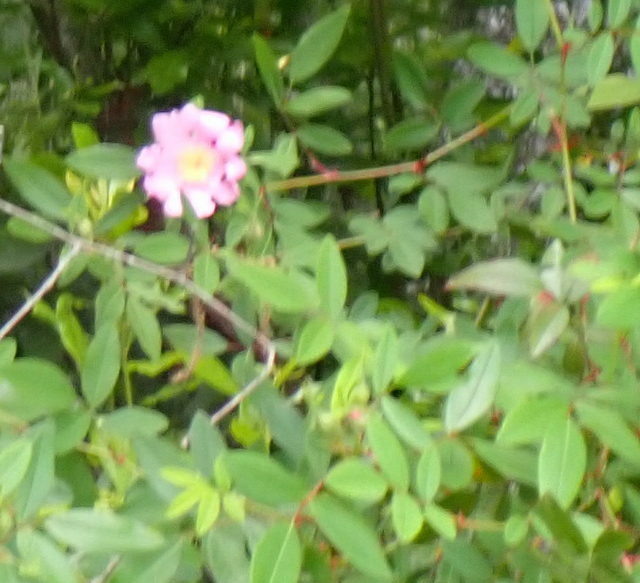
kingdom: Plantae
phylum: Tracheophyta
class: Magnoliopsida
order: Rosales
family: Rosaceae
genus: Rosa
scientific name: Rosa palustris
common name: Swamp rose
